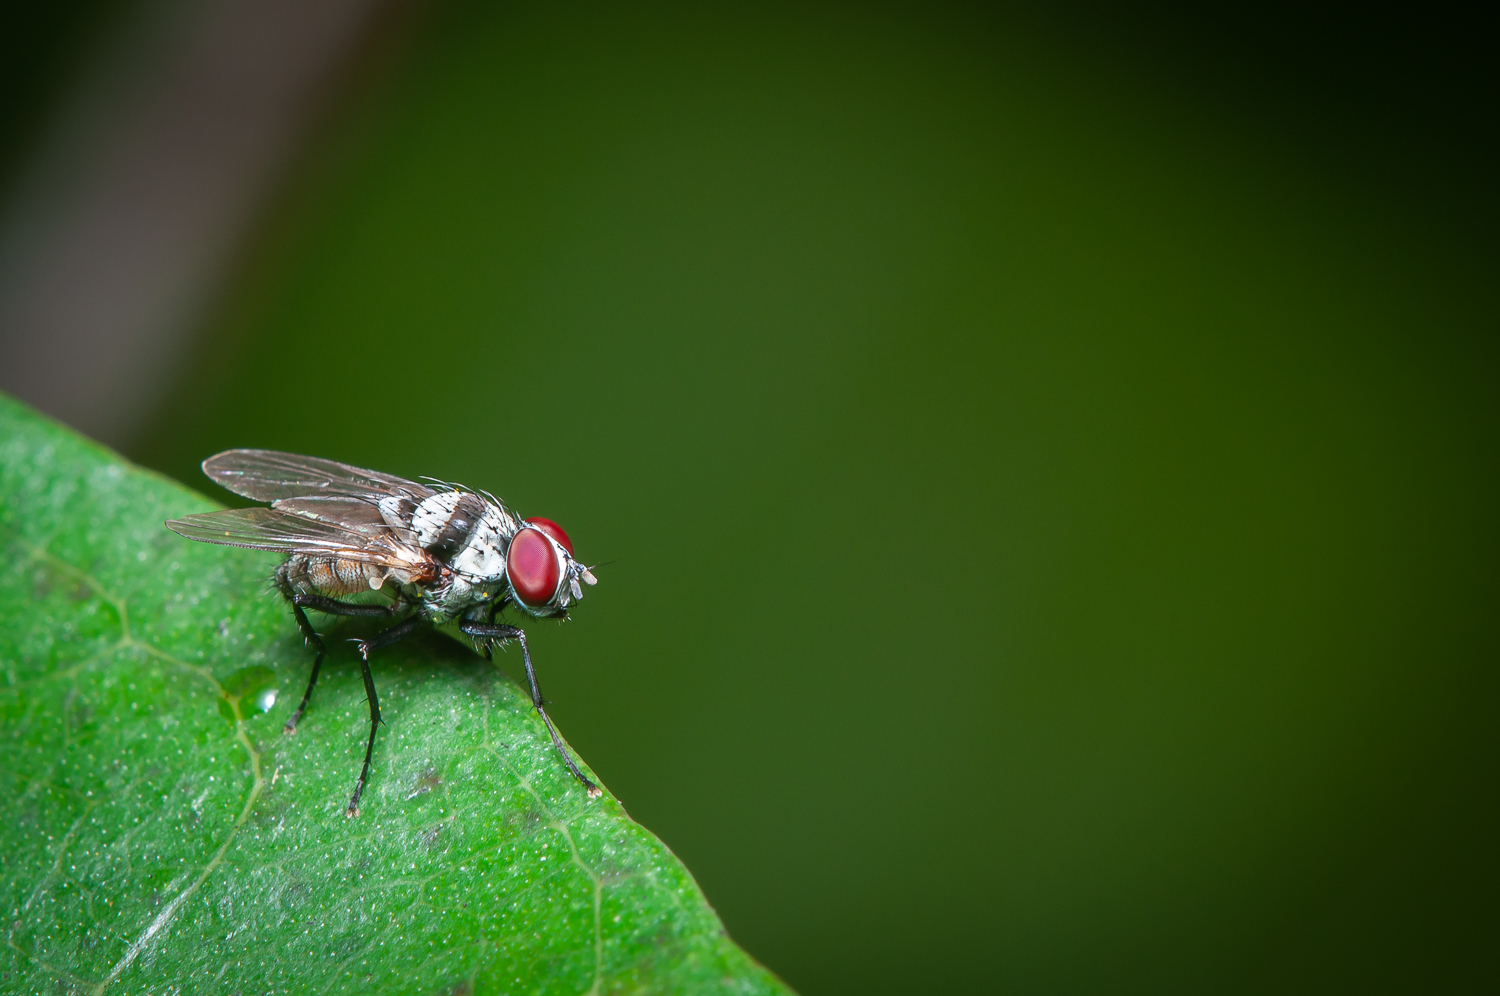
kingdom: Animalia
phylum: Arthropoda
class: Insecta
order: Diptera
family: Anthomyiidae
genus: Anthomyia
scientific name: Anthomyia illocata
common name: Fly
